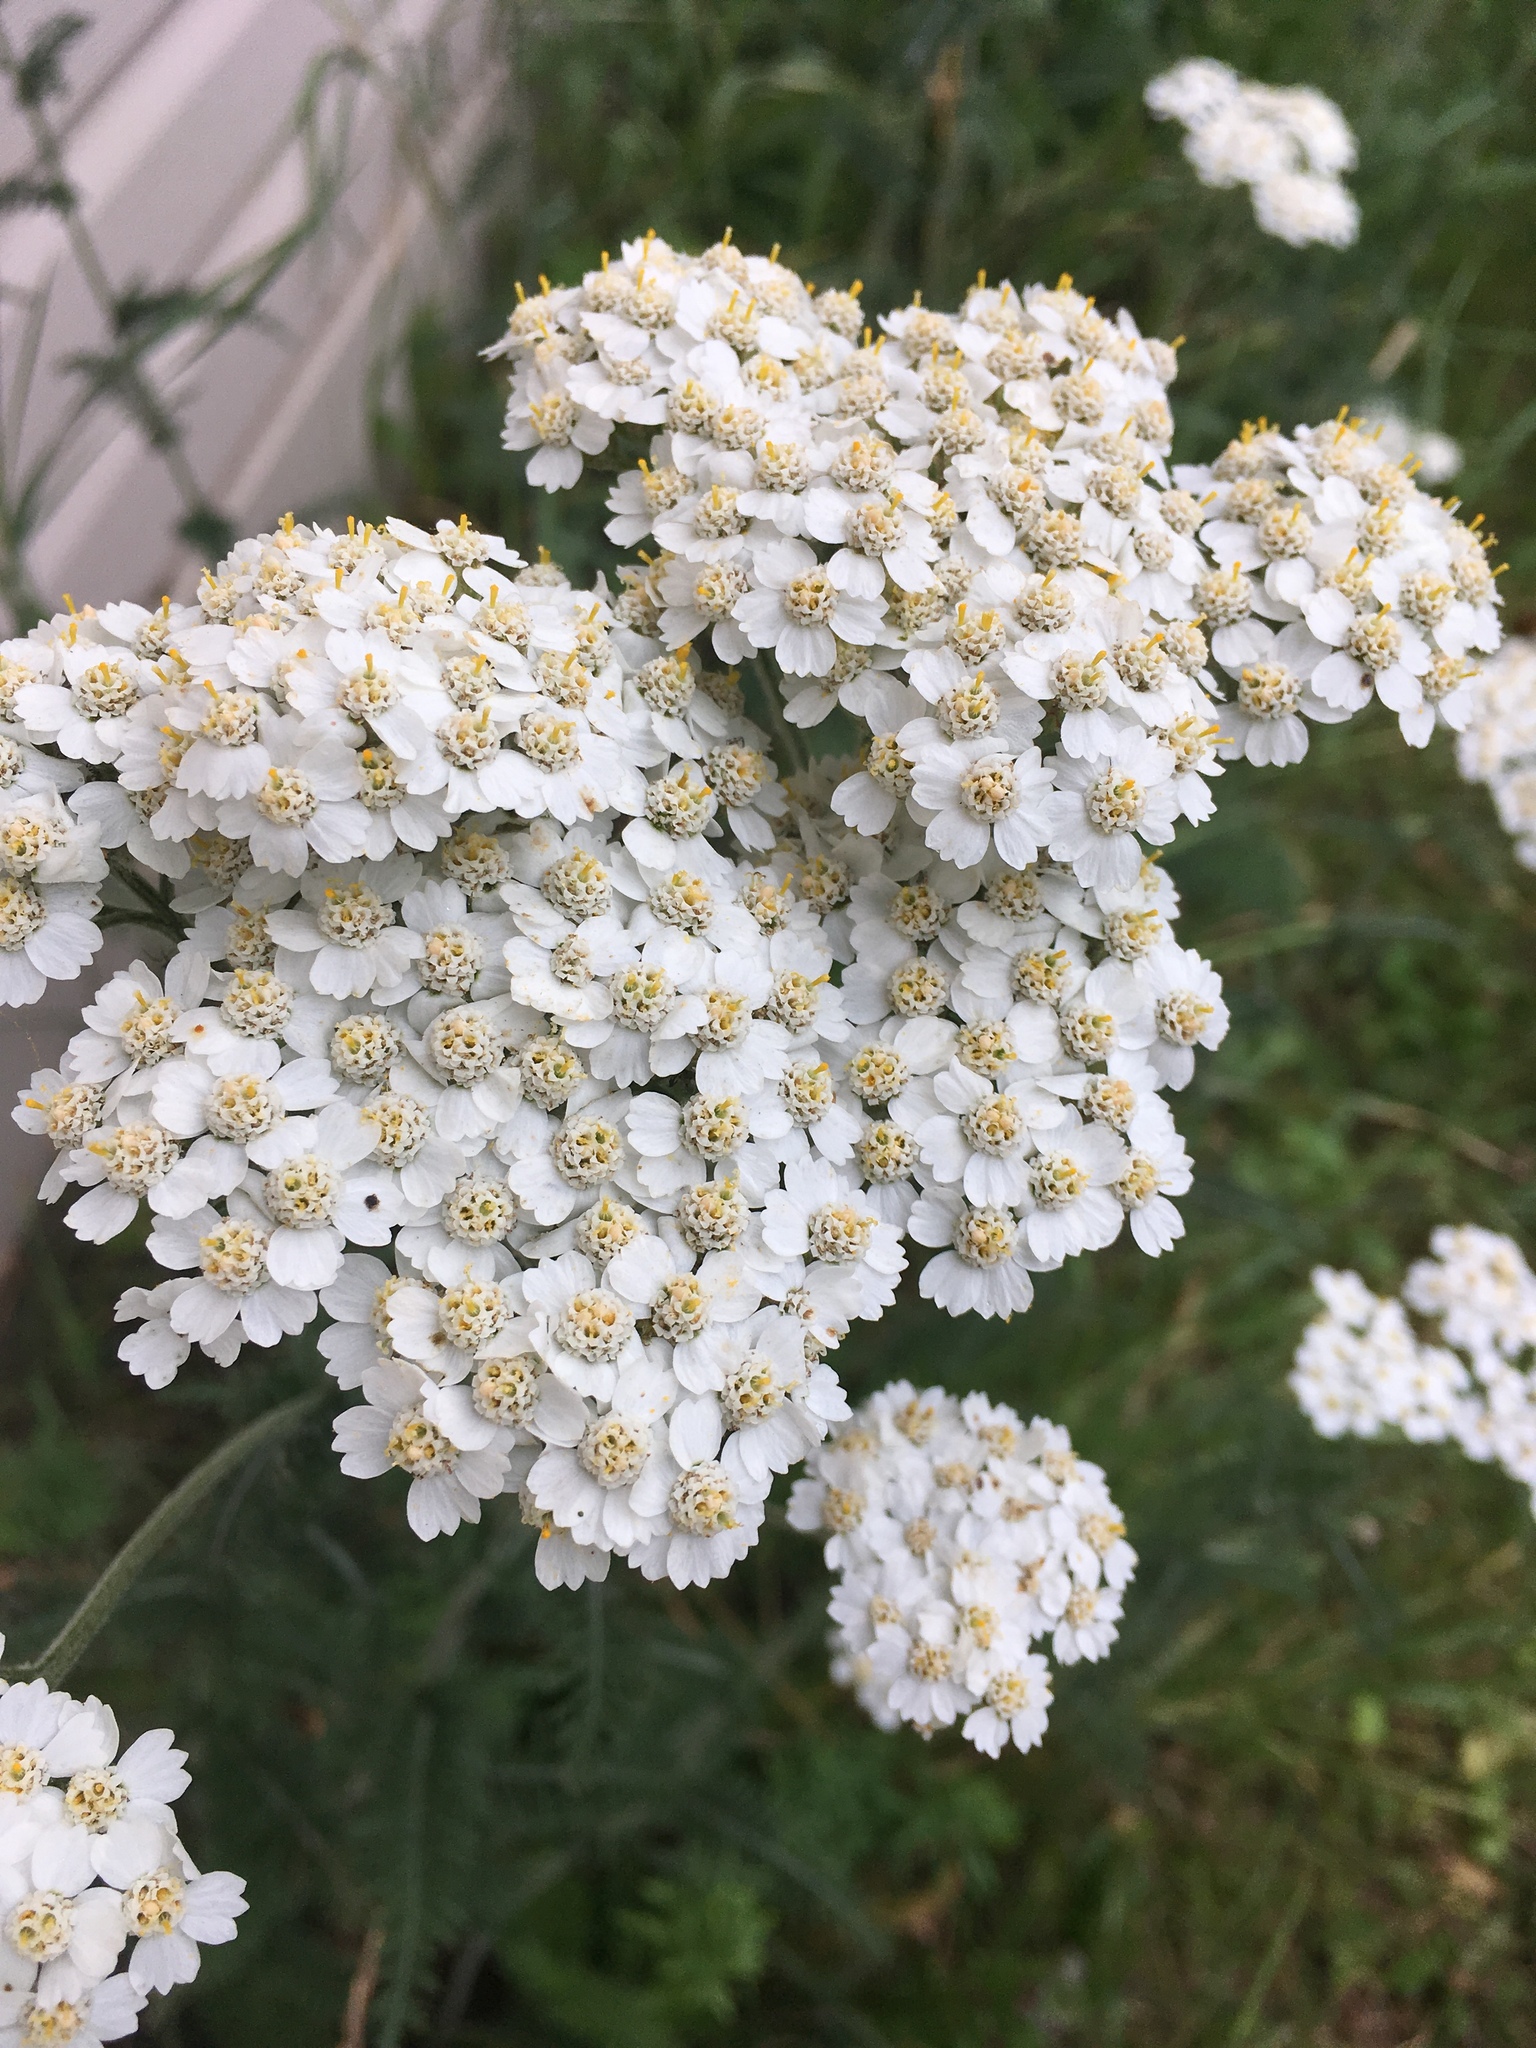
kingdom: Plantae
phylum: Tracheophyta
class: Magnoliopsida
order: Asterales
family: Asteraceae
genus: Achillea
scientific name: Achillea millefolium
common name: Yarrow
